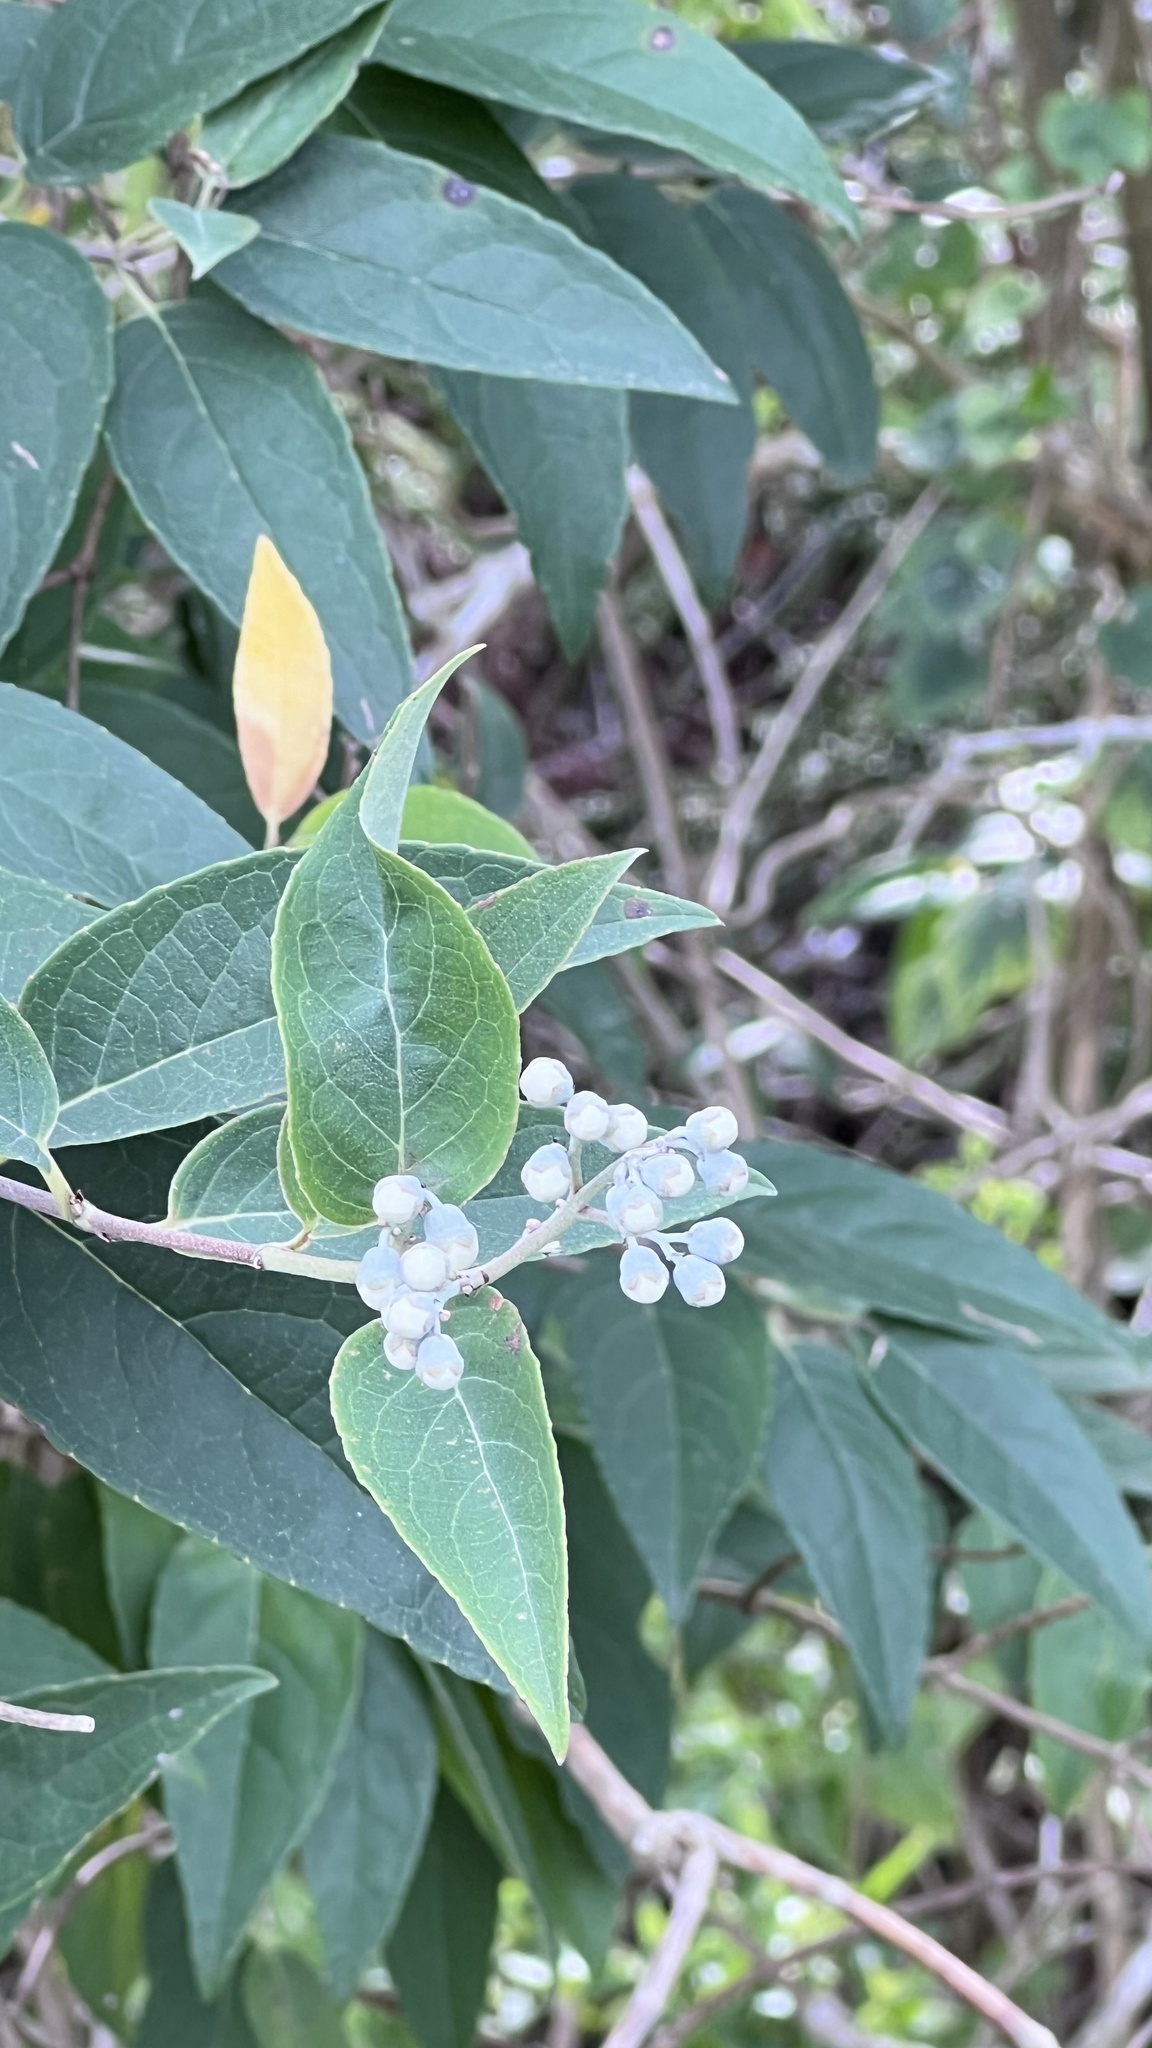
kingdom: Plantae
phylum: Tracheophyta
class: Magnoliopsida
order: Cornales
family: Hydrangeaceae
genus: Deutzia
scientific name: Deutzia pulchra
